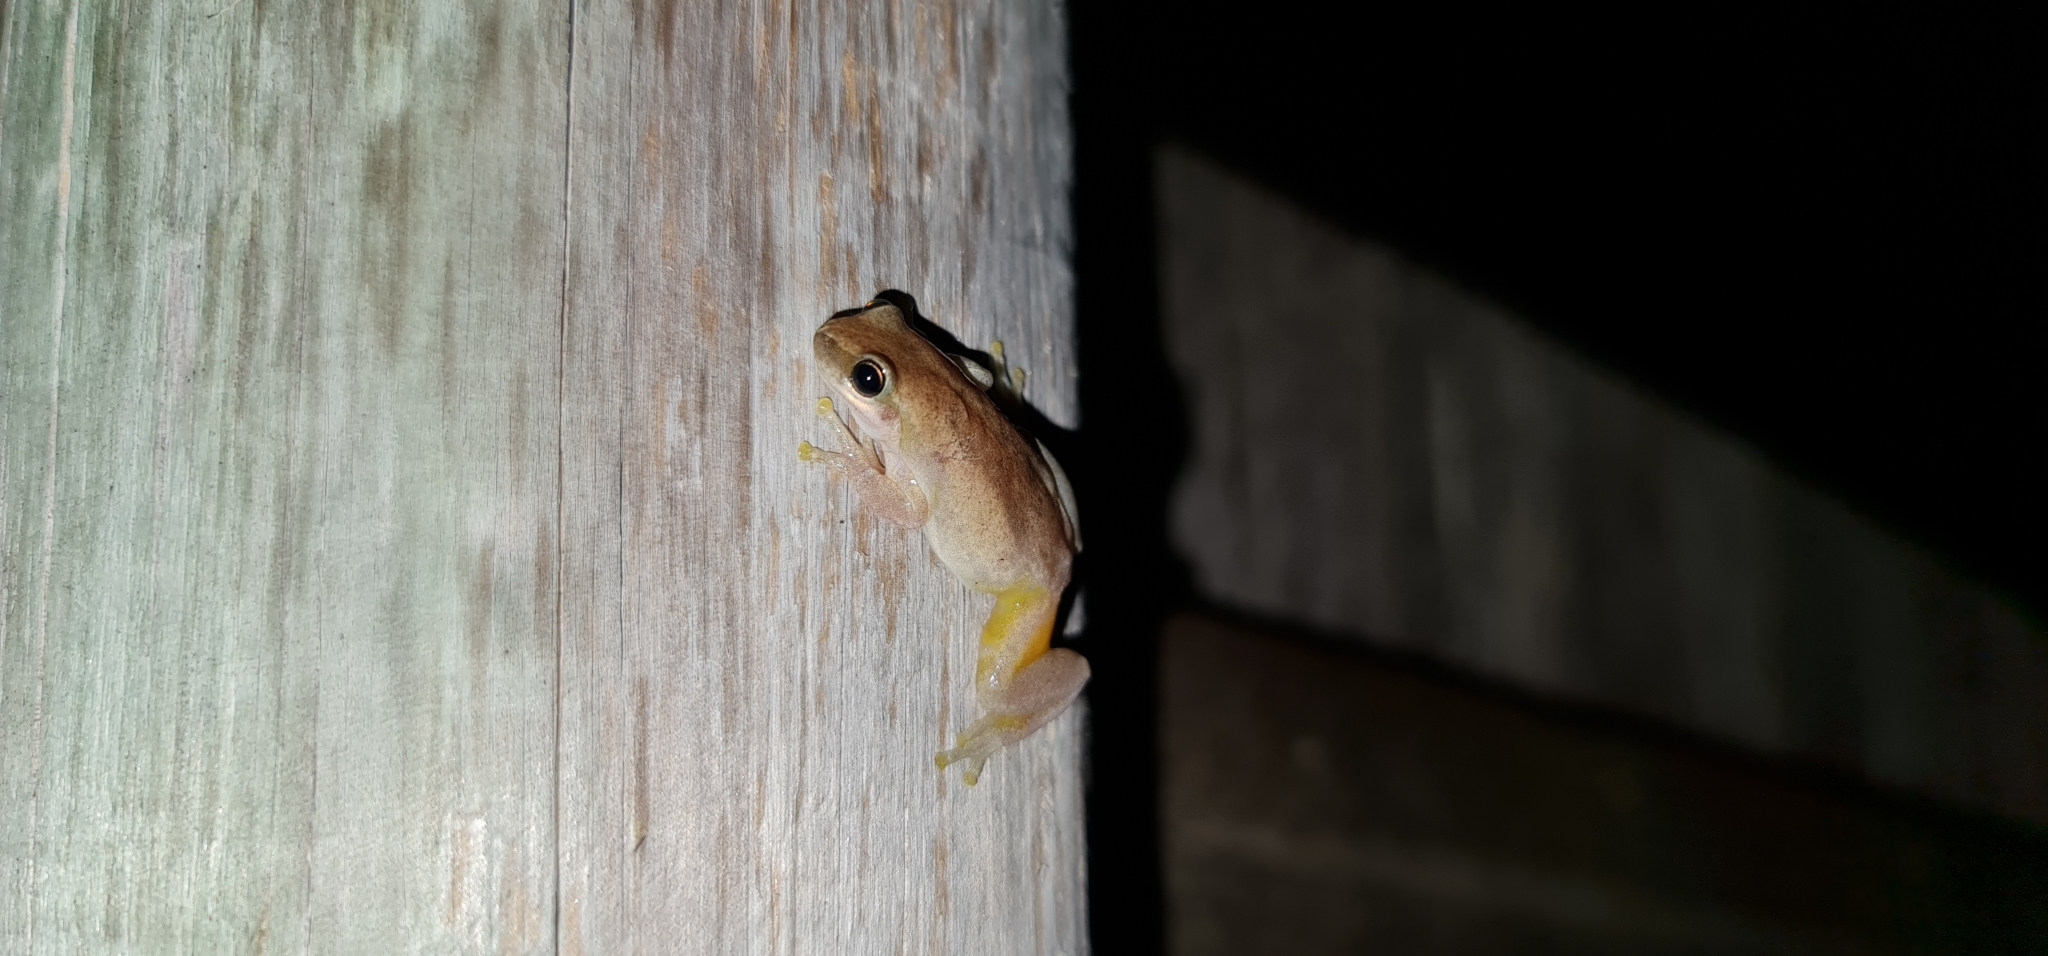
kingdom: Animalia
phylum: Chordata
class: Amphibia
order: Anura
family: Pelodryadidae
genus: Litoria
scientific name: Litoria rubella
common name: Desert tree frog
